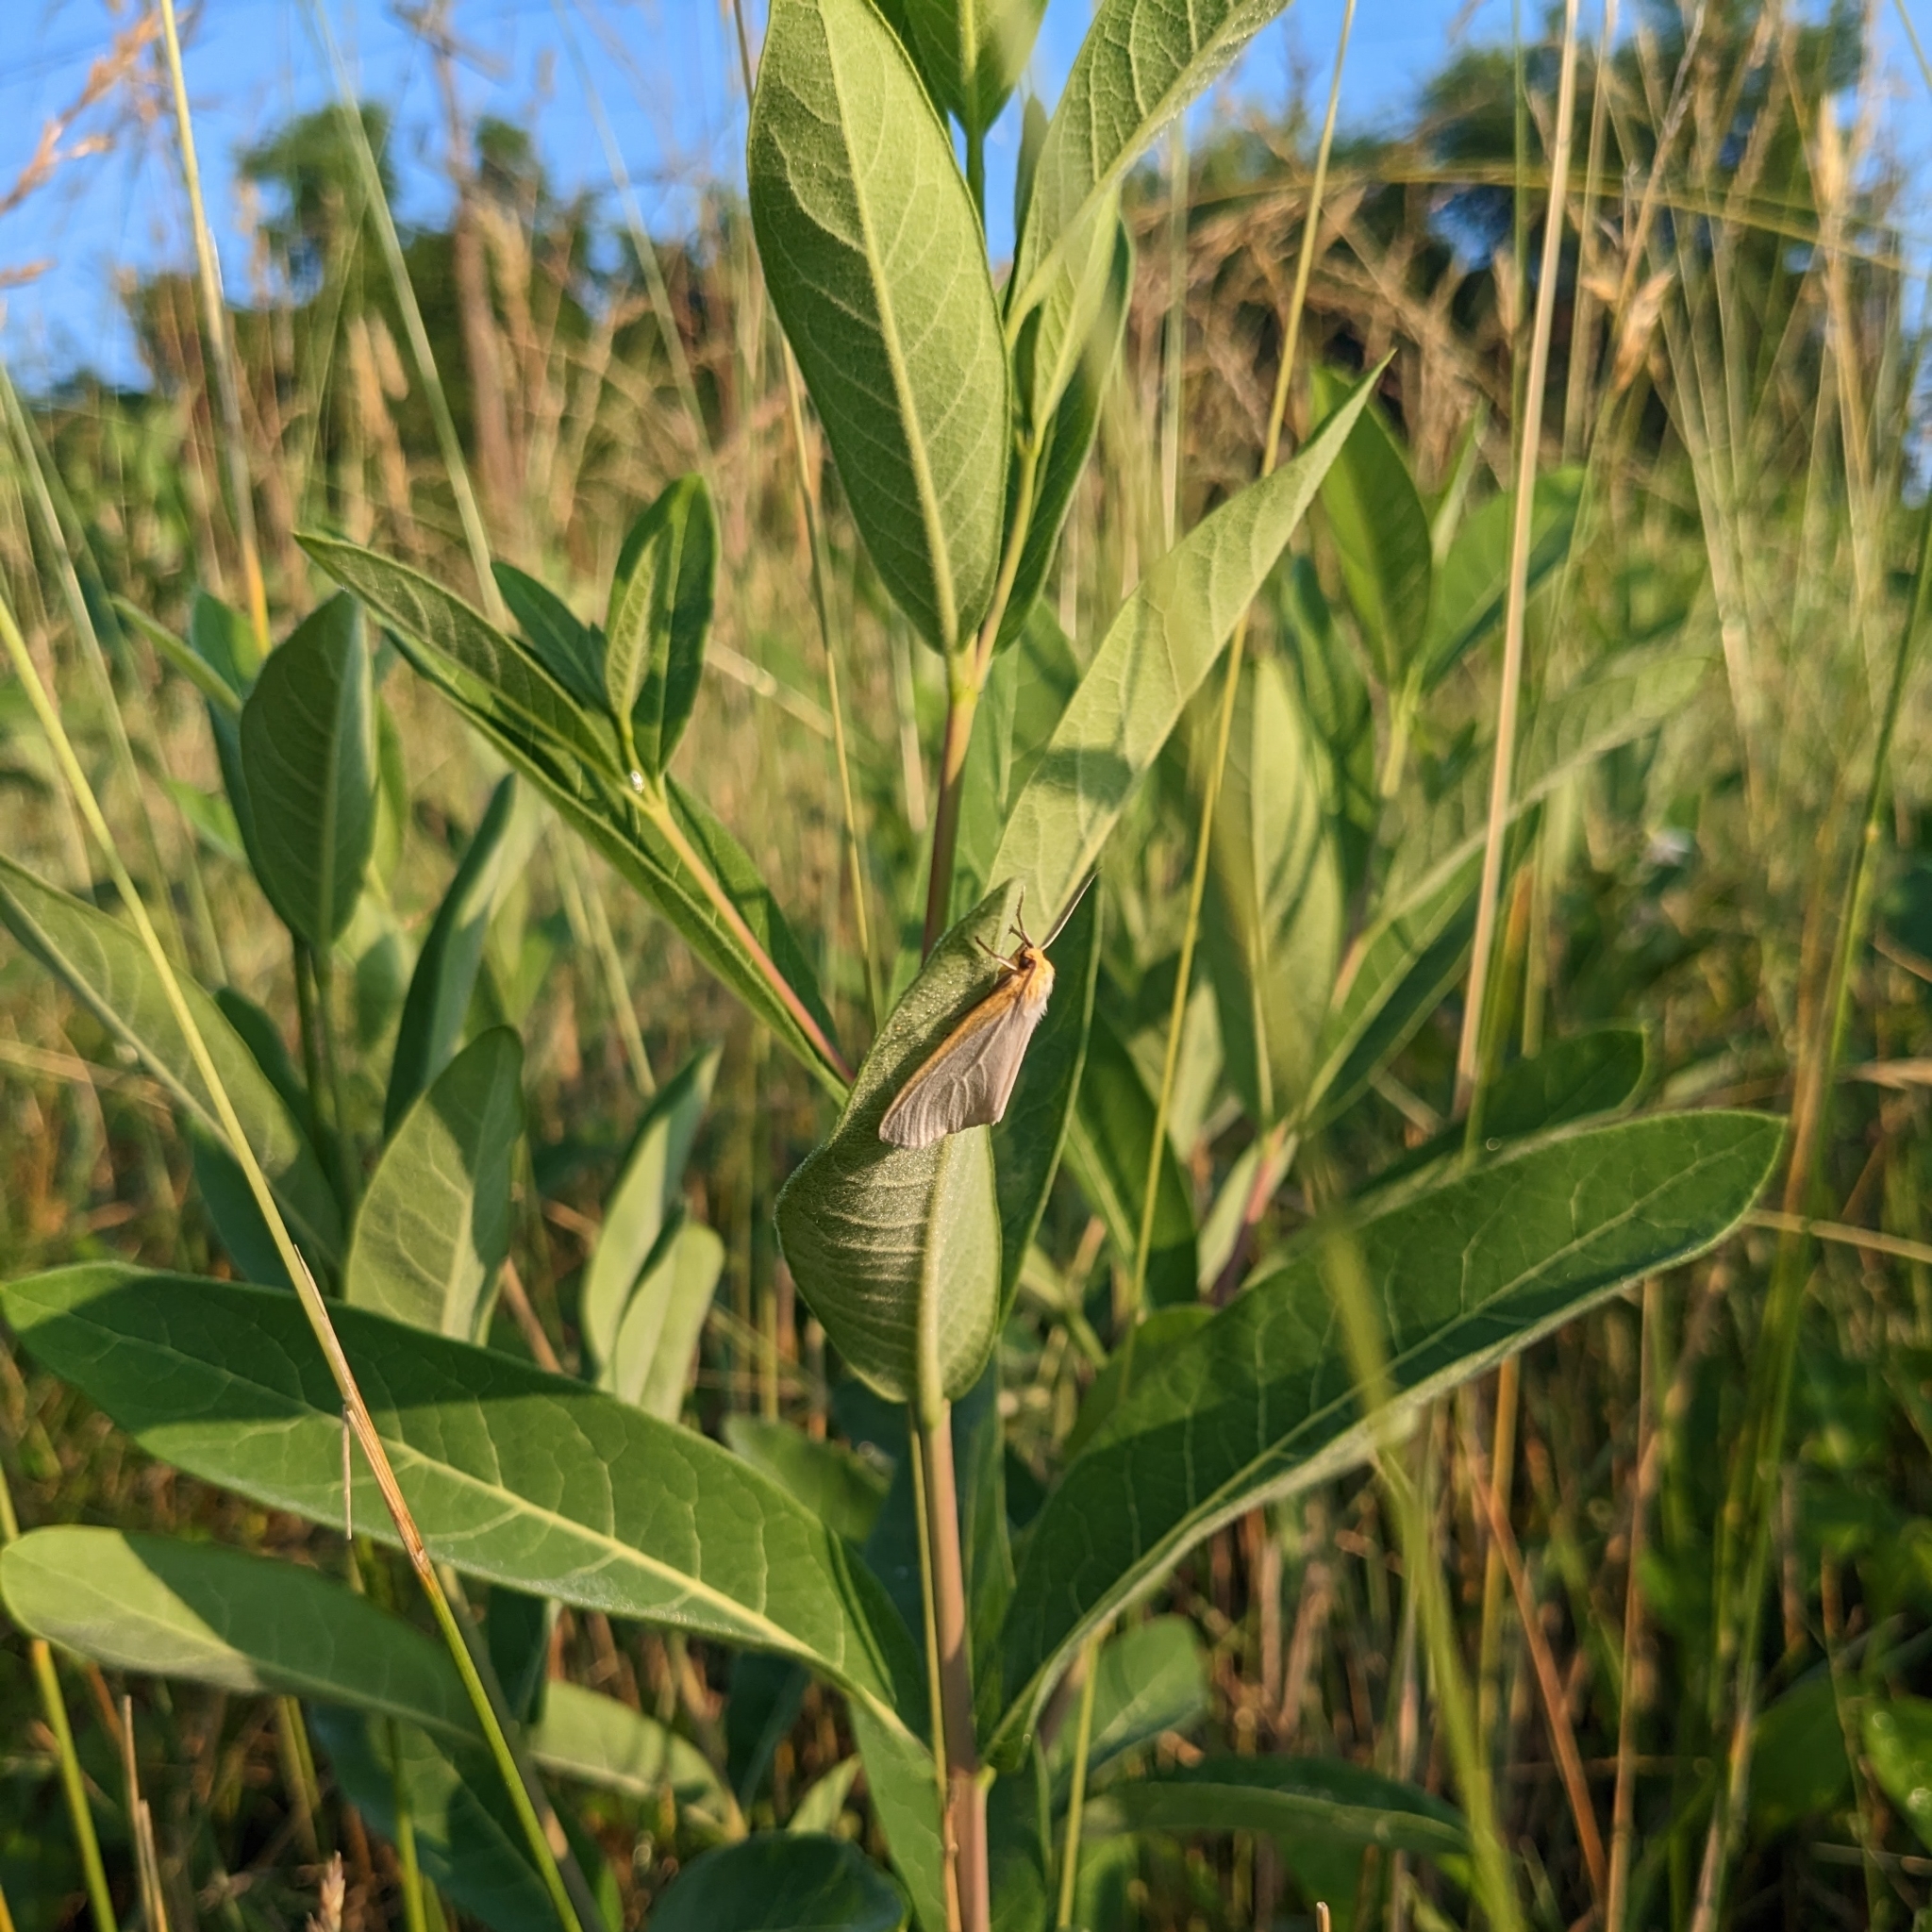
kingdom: Animalia
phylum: Arthropoda
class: Insecta
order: Lepidoptera
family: Erebidae
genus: Cycnia
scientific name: Cycnia tenera
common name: Delicate cycnia moth
